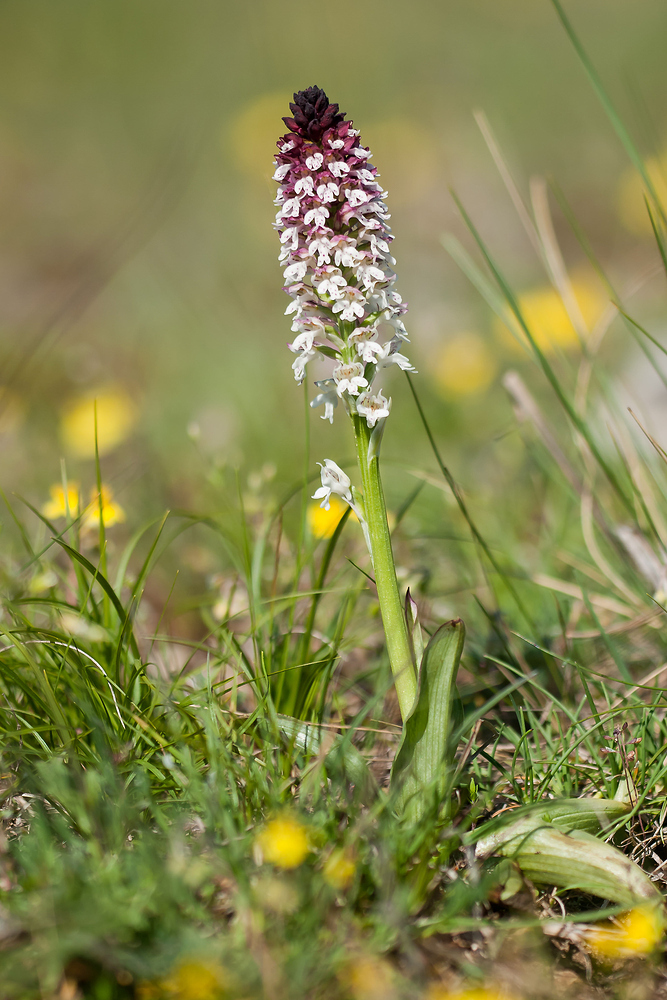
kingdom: Plantae
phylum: Tracheophyta
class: Liliopsida
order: Asparagales
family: Orchidaceae
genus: Neotinea
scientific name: Neotinea ustulata
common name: Burnt orchid
